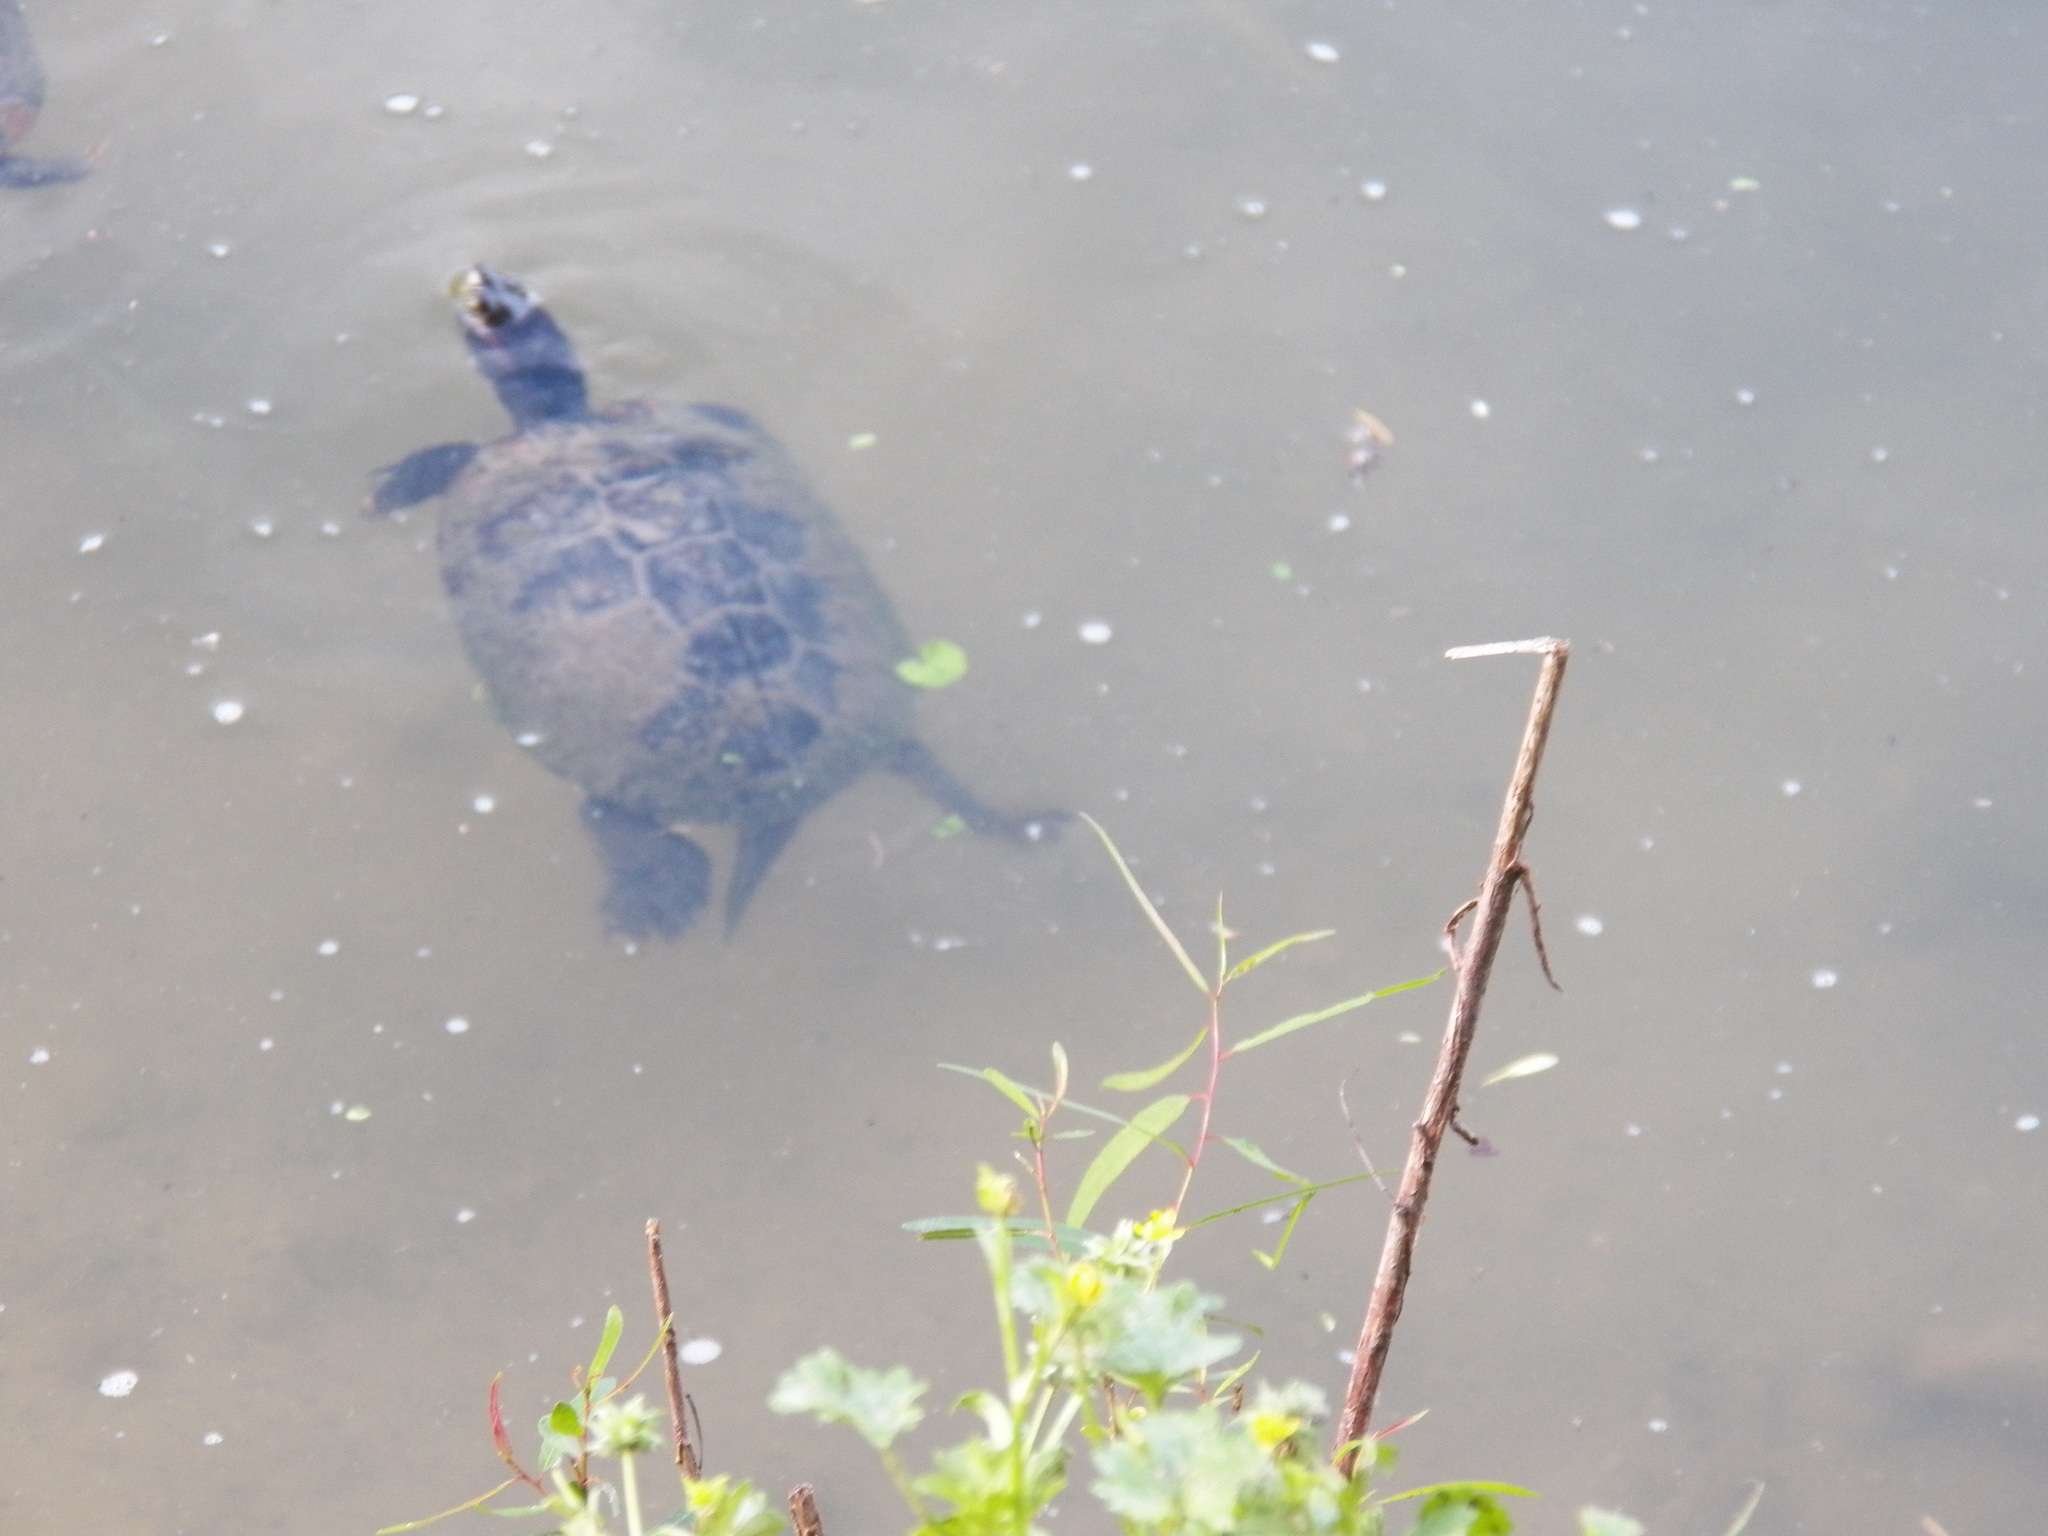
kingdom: Animalia
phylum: Chordata
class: Testudines
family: Emydidae
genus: Trachemys
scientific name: Trachemys scripta
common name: Slider
